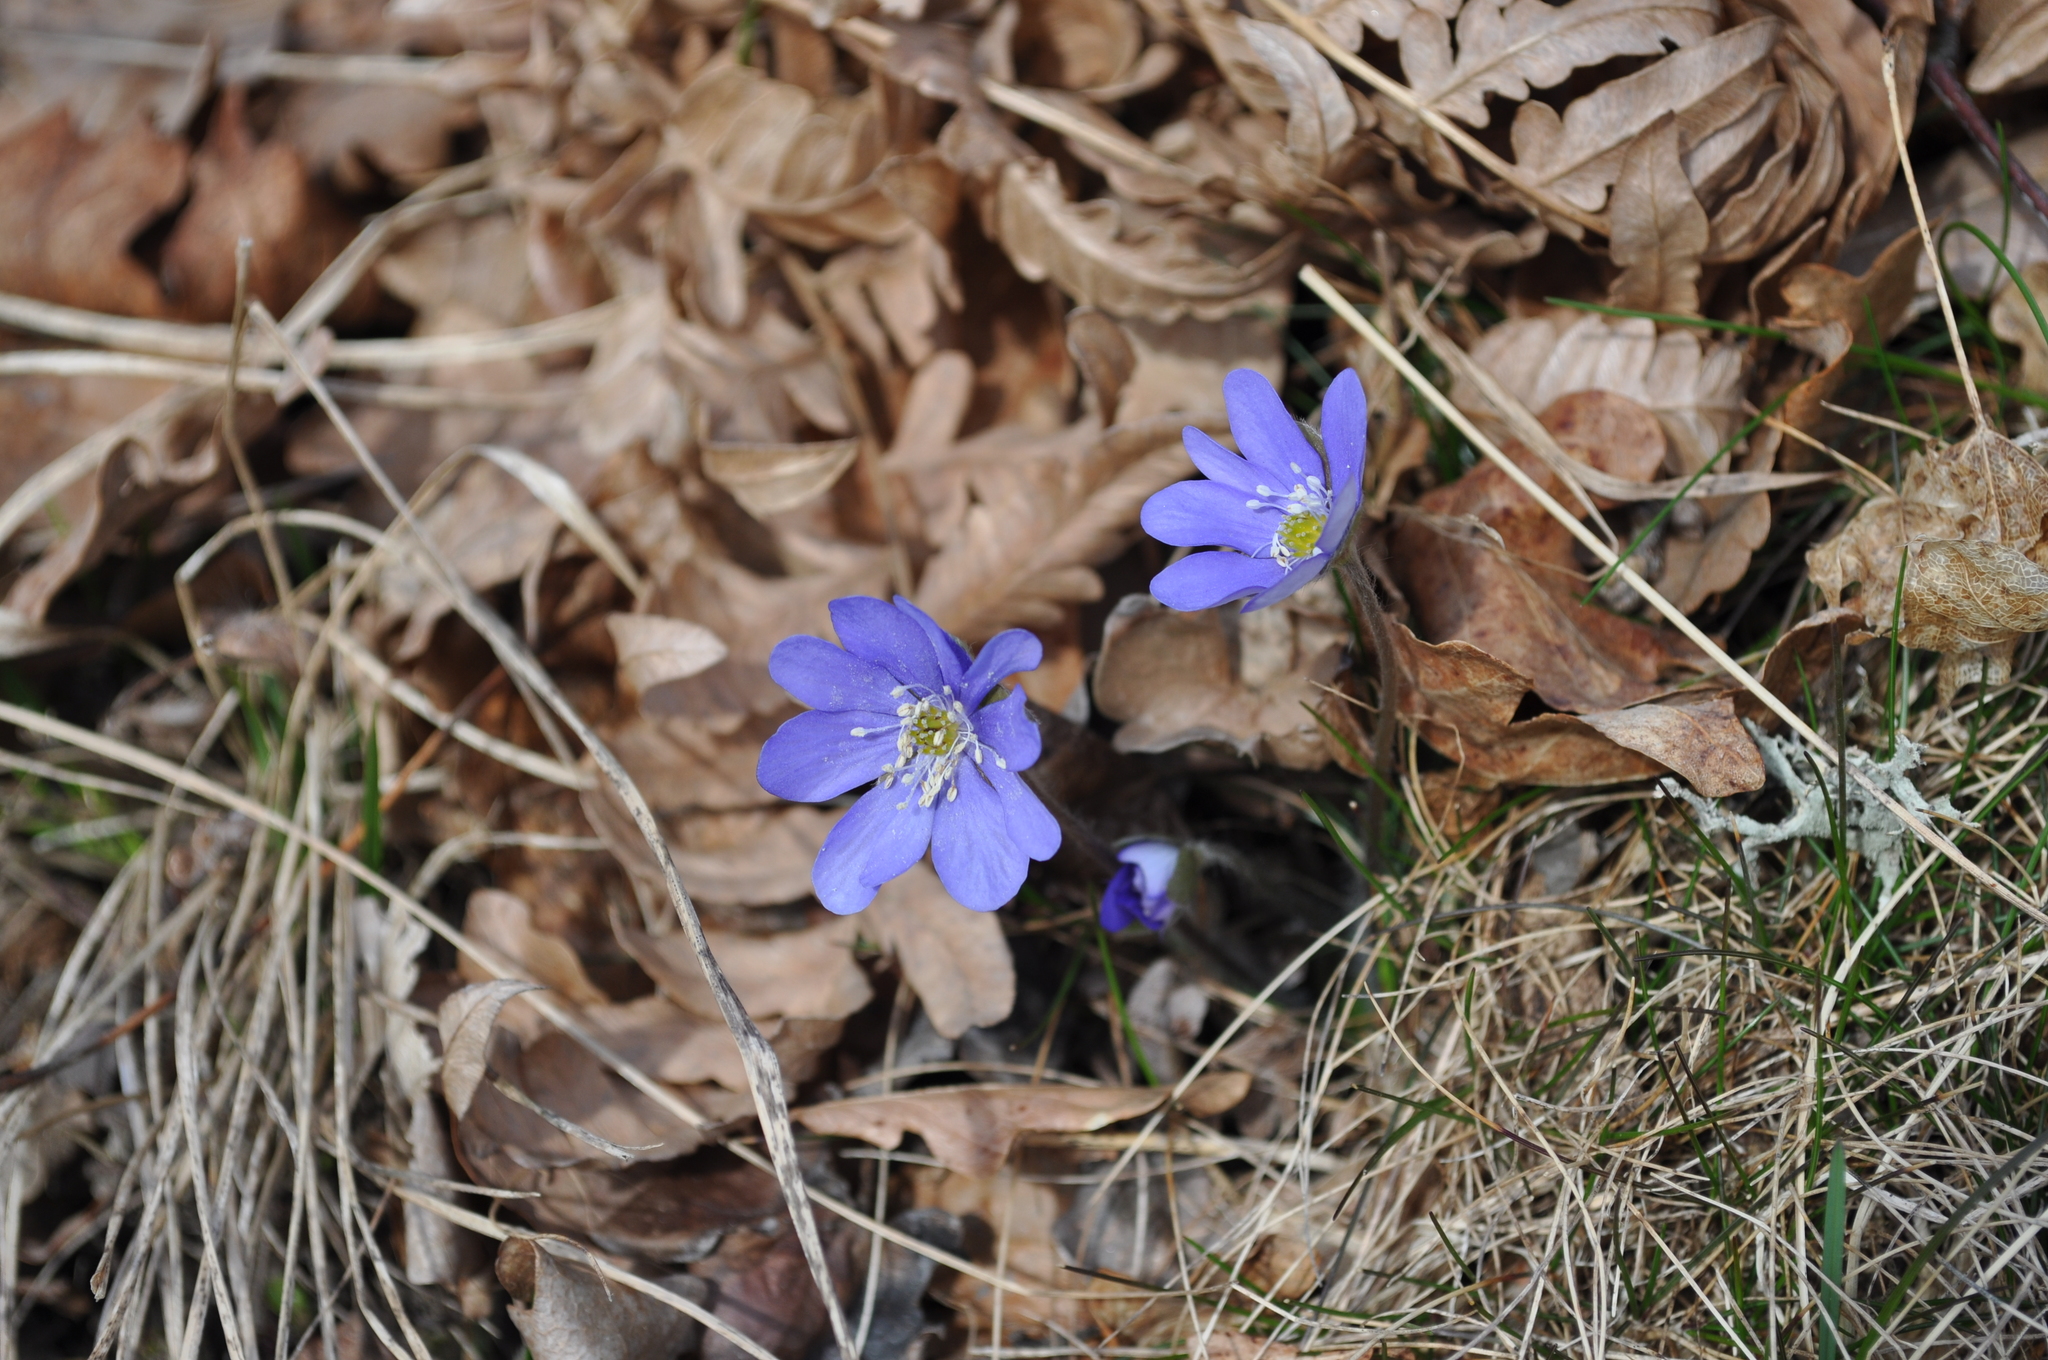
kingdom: Plantae
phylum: Tracheophyta
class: Magnoliopsida
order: Ranunculales
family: Ranunculaceae
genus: Hepatica
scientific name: Hepatica nobilis
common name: Liverleaf
